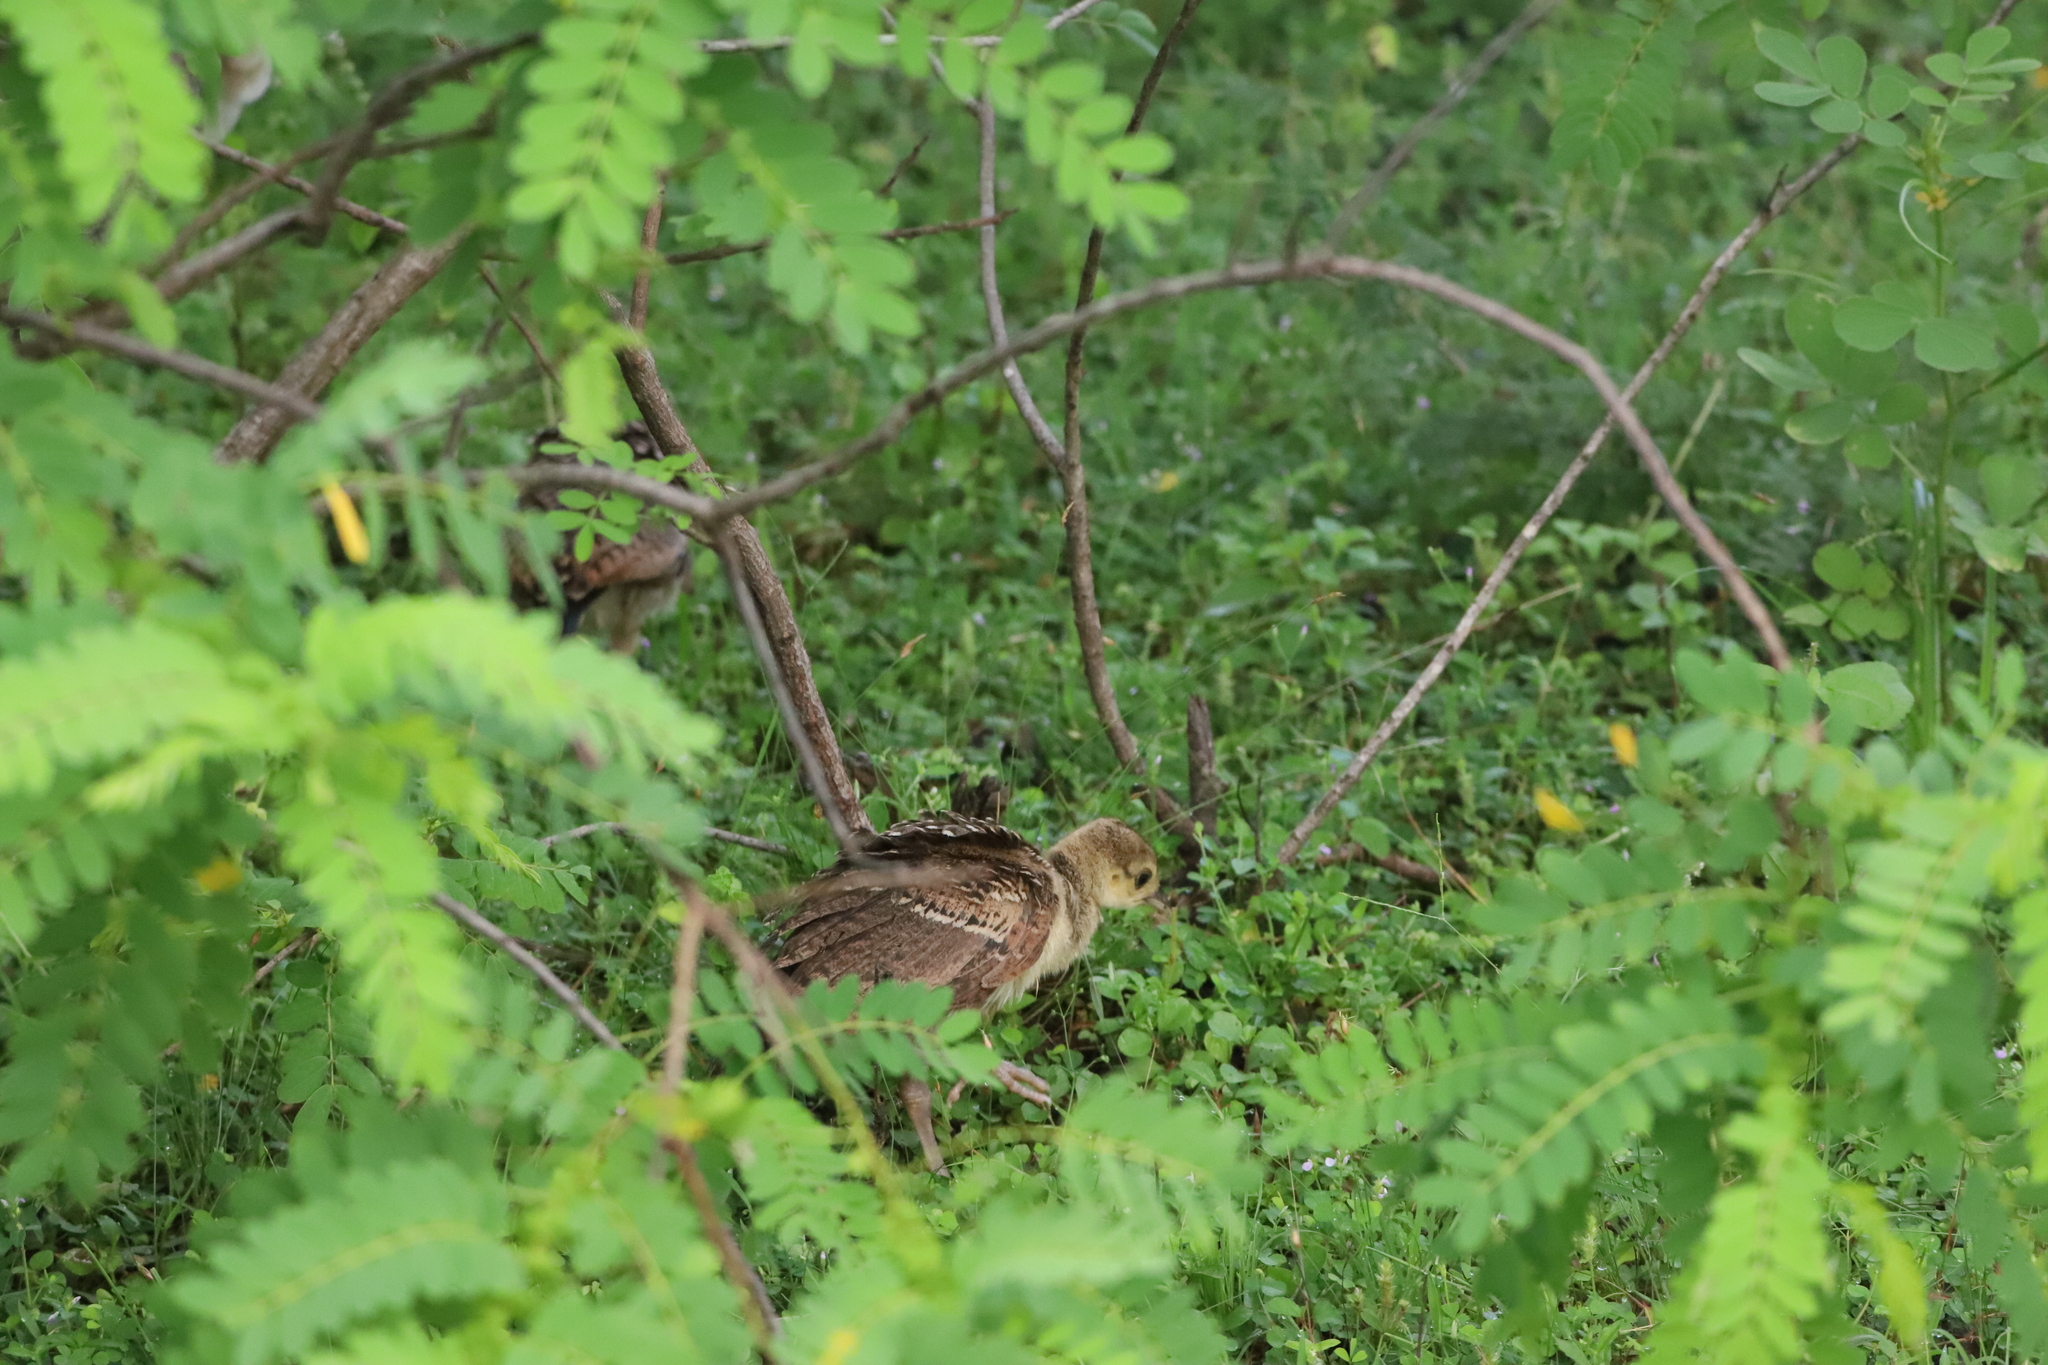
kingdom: Animalia
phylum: Chordata
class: Aves
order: Galliformes
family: Phasianidae
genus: Pavo
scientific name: Pavo cristatus
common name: Indian peafowl
